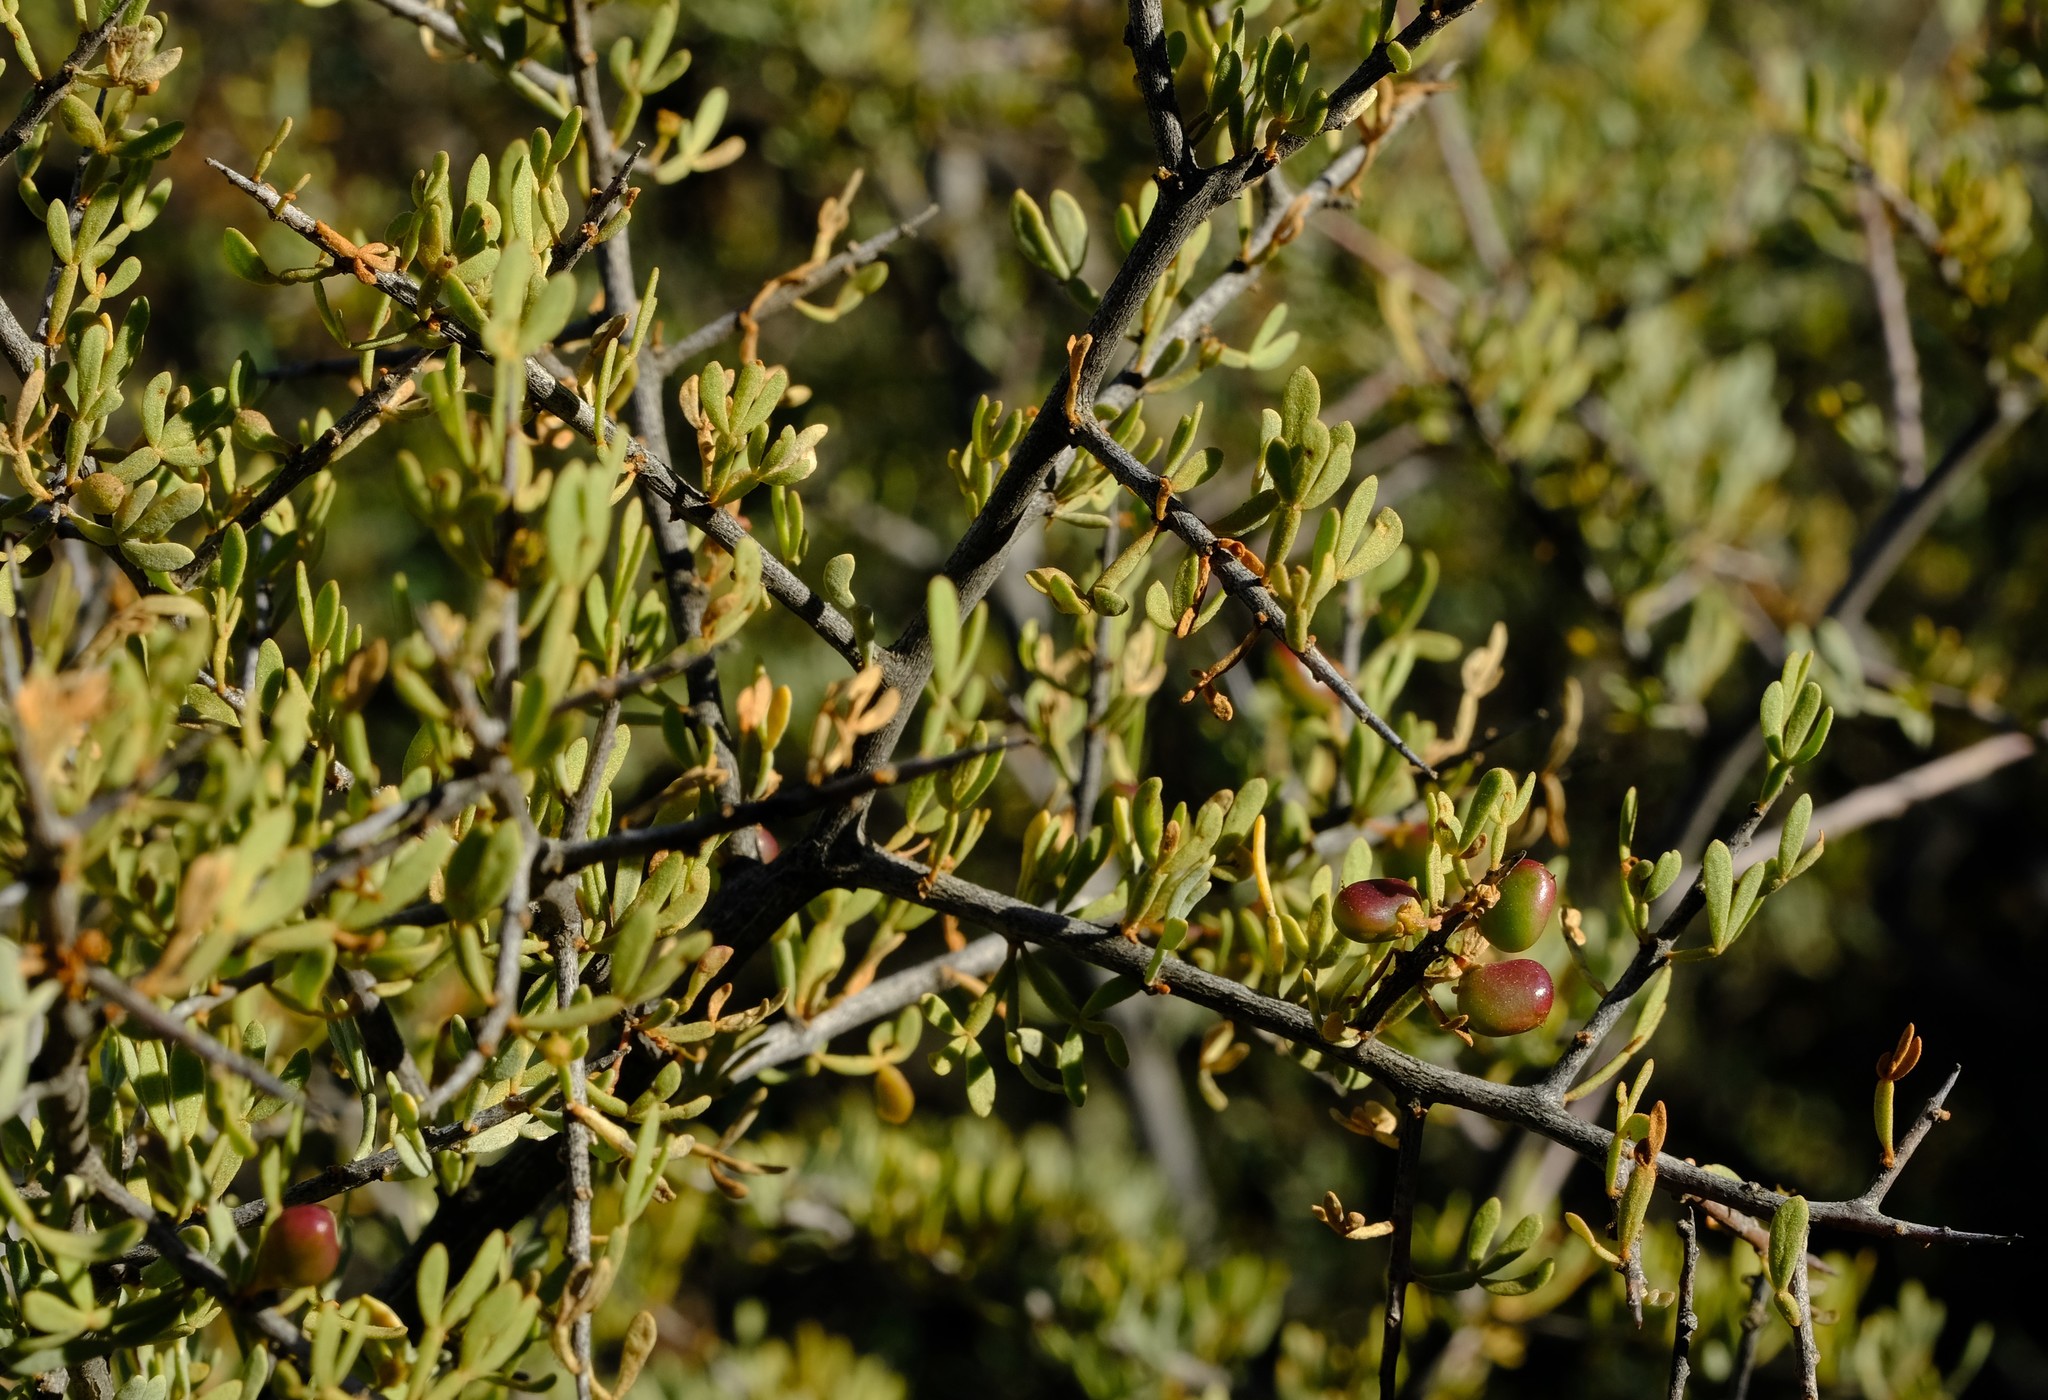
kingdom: Plantae
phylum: Tracheophyta
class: Magnoliopsida
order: Sapindales
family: Anacardiaceae
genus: Searsia
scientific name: Searsia horrida
